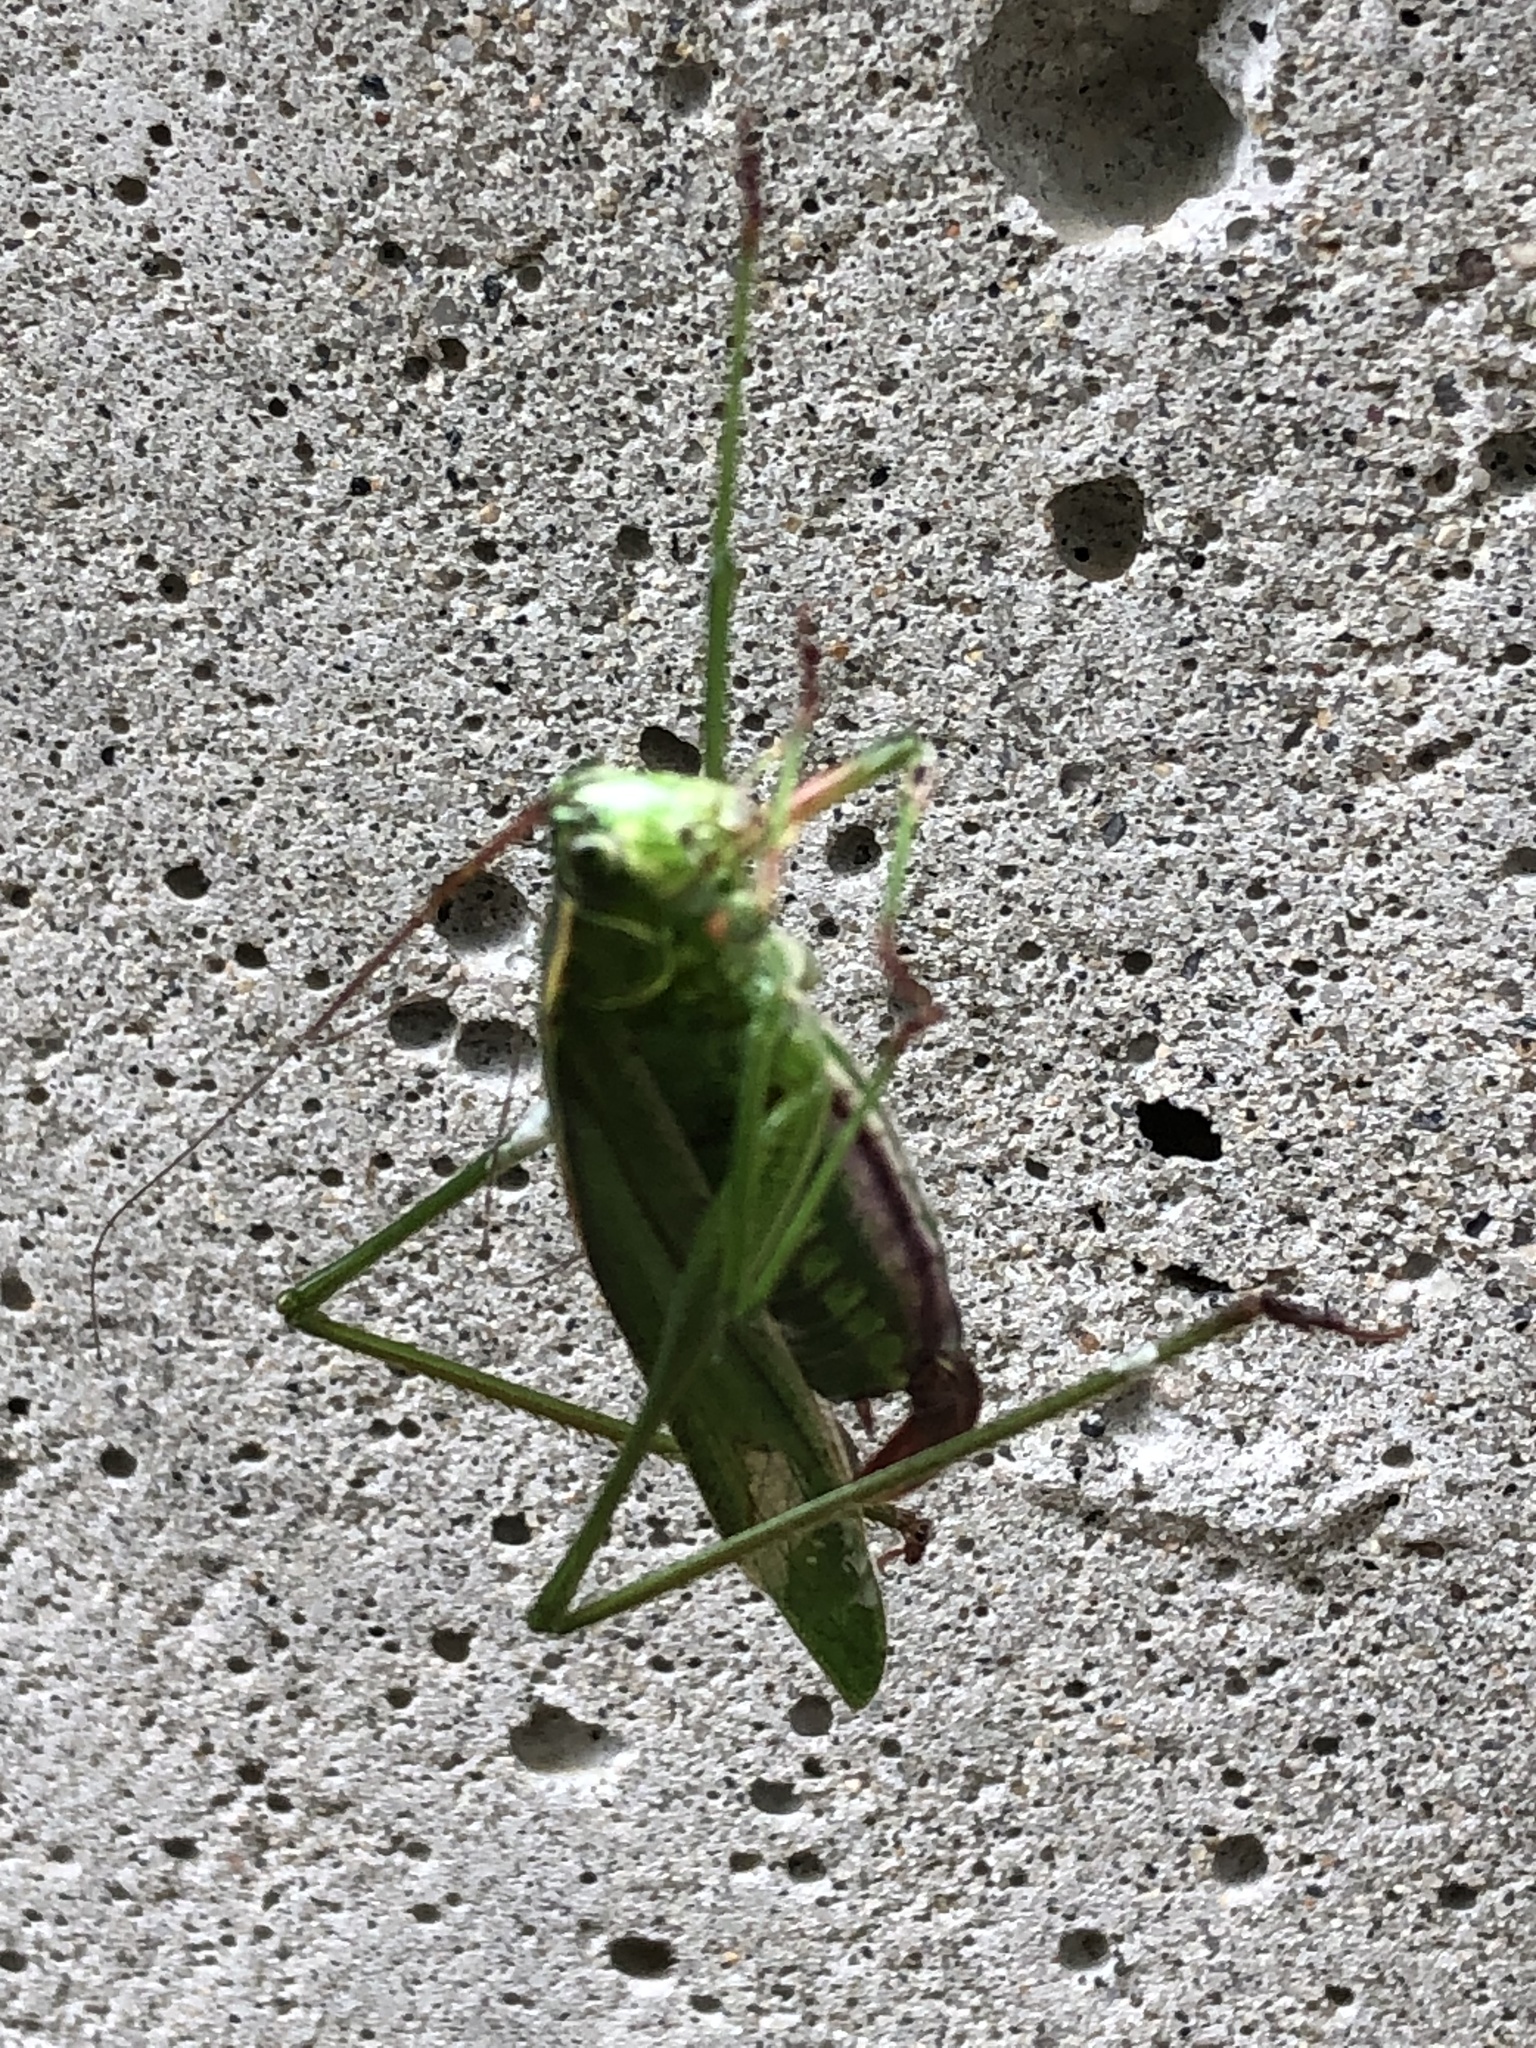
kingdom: Animalia
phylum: Arthropoda
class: Insecta
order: Orthoptera
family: Tettigoniidae
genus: Scudderia
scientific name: Scudderia fasciata
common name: Treetop bush katydid
